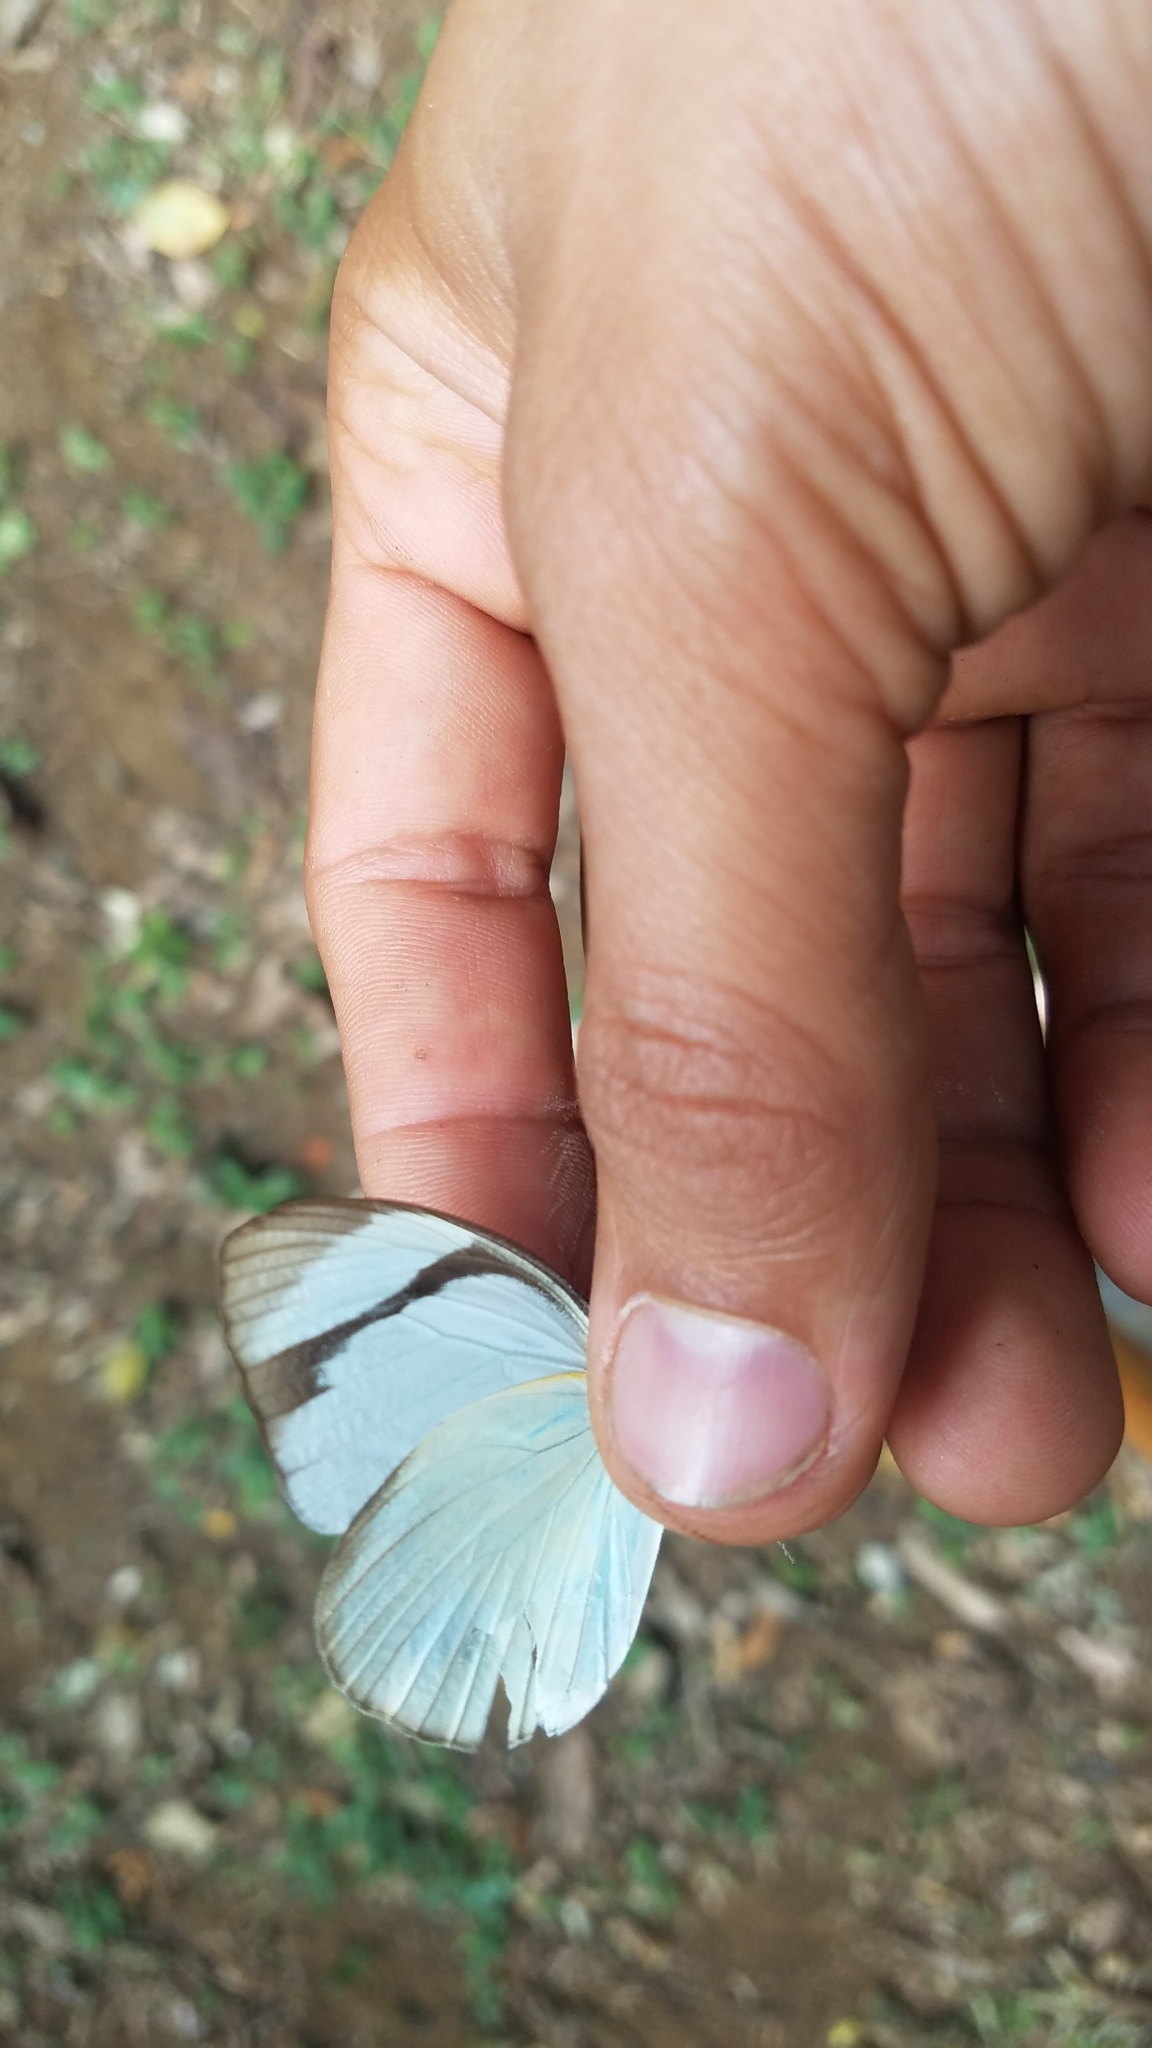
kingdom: Animalia
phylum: Arthropoda
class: Insecta
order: Lepidoptera
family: Pieridae
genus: Itaballia
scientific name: Itaballia demophile
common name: Cross-barred white
